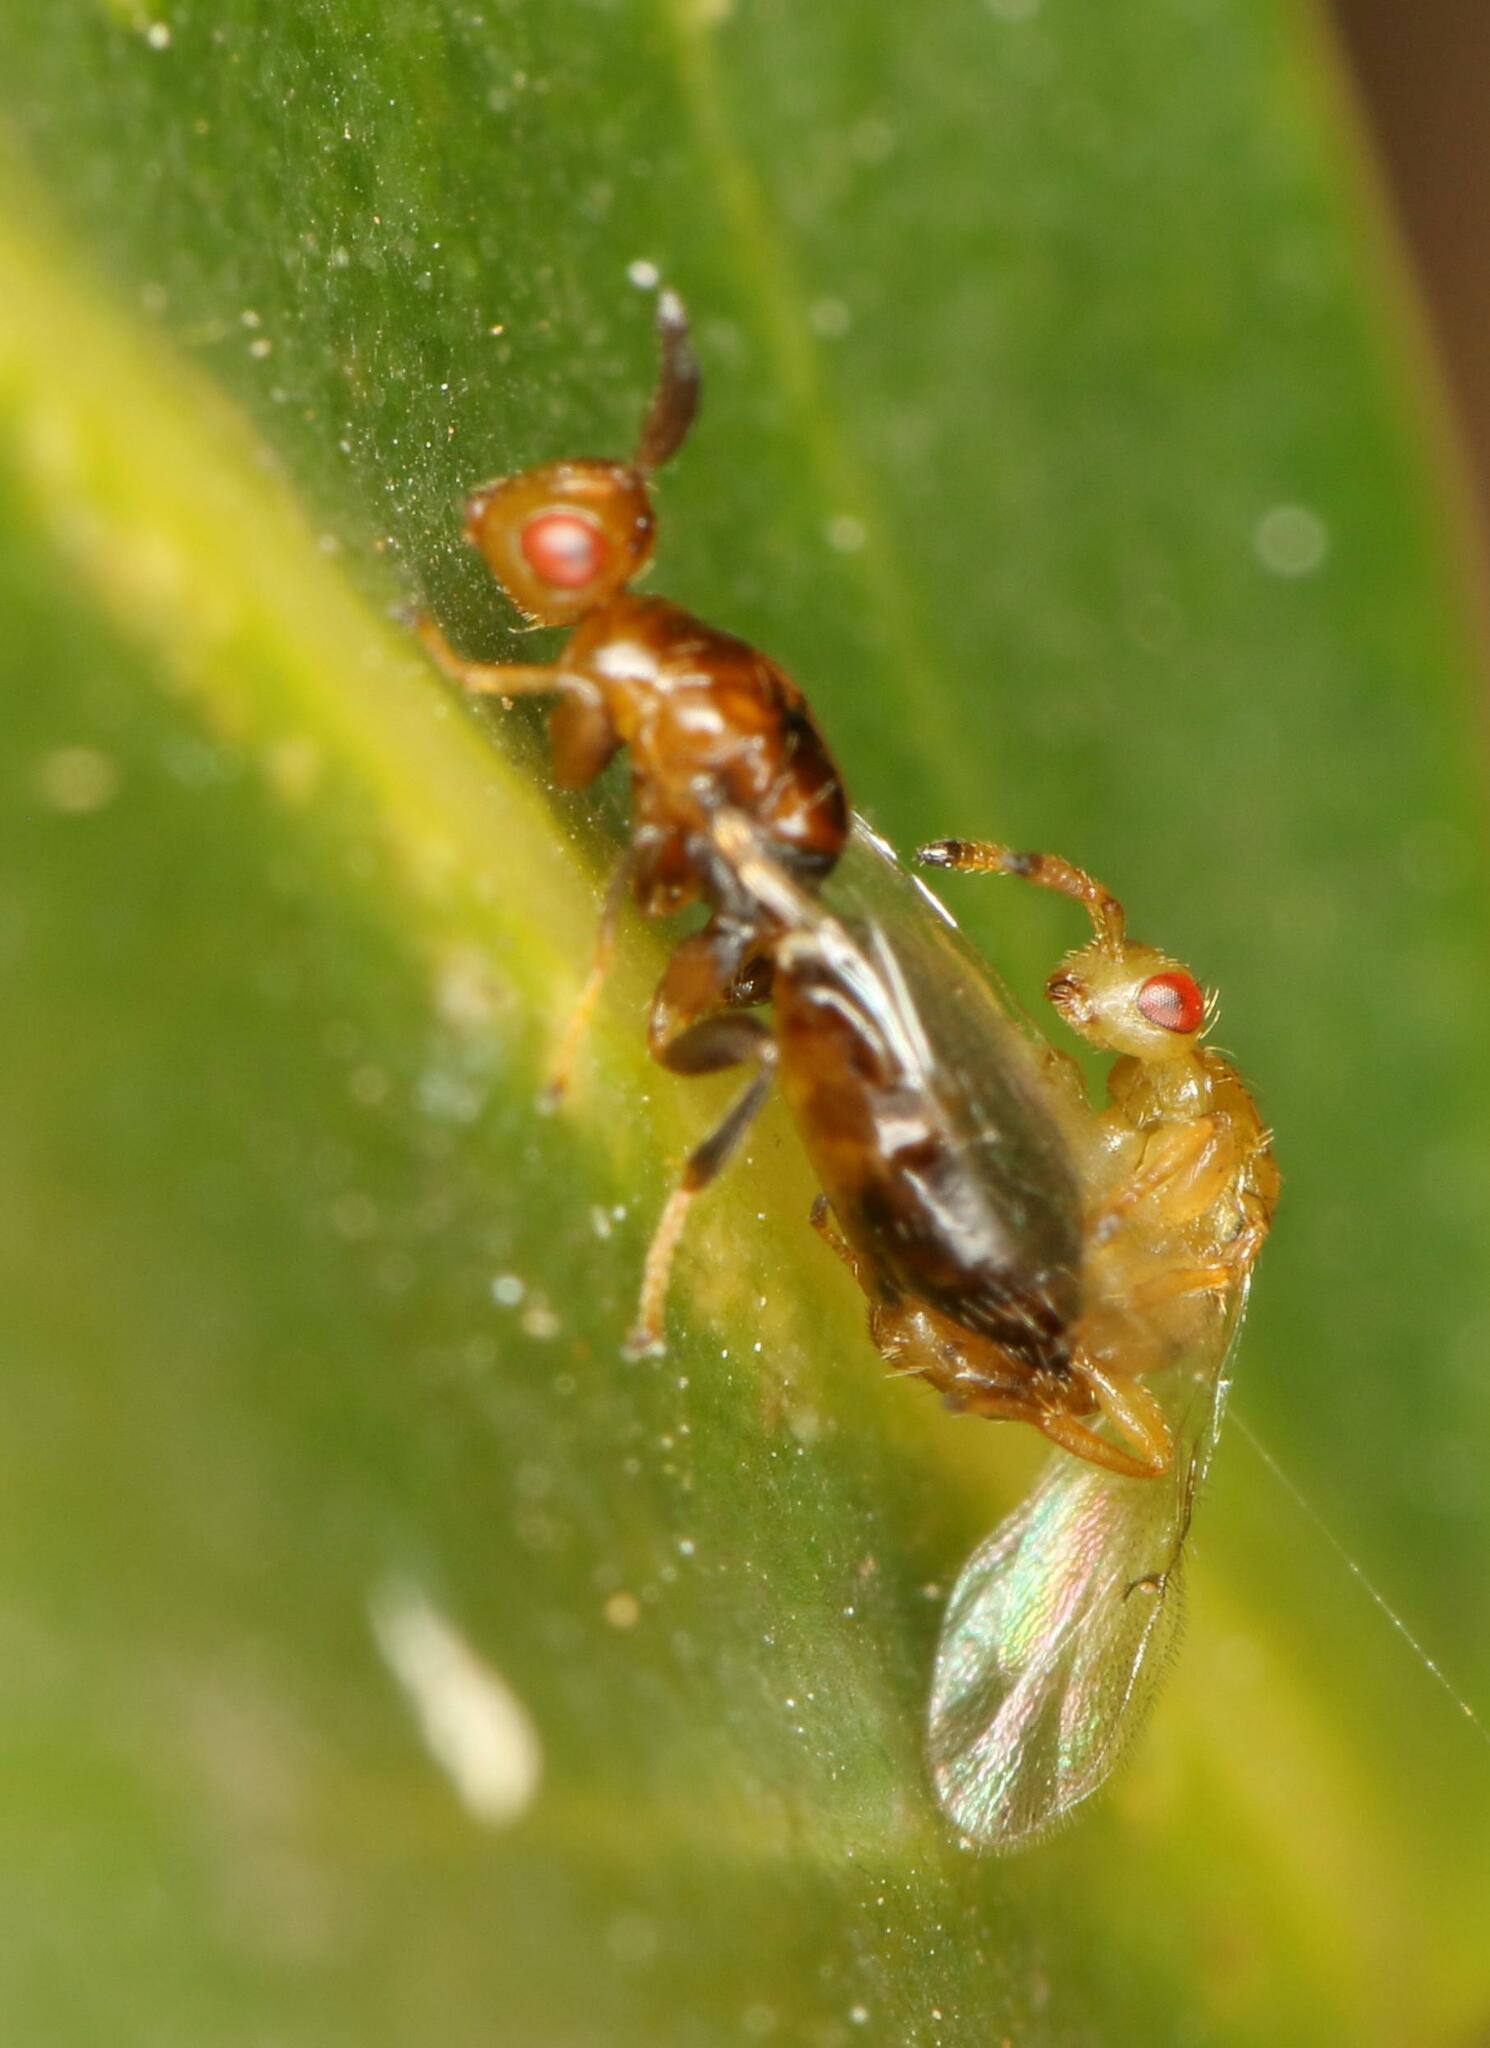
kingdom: Animalia
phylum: Arthropoda
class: Insecta
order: Hymenoptera
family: Agaonidae
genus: Lachaisea
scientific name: Lachaisea brevimucro
